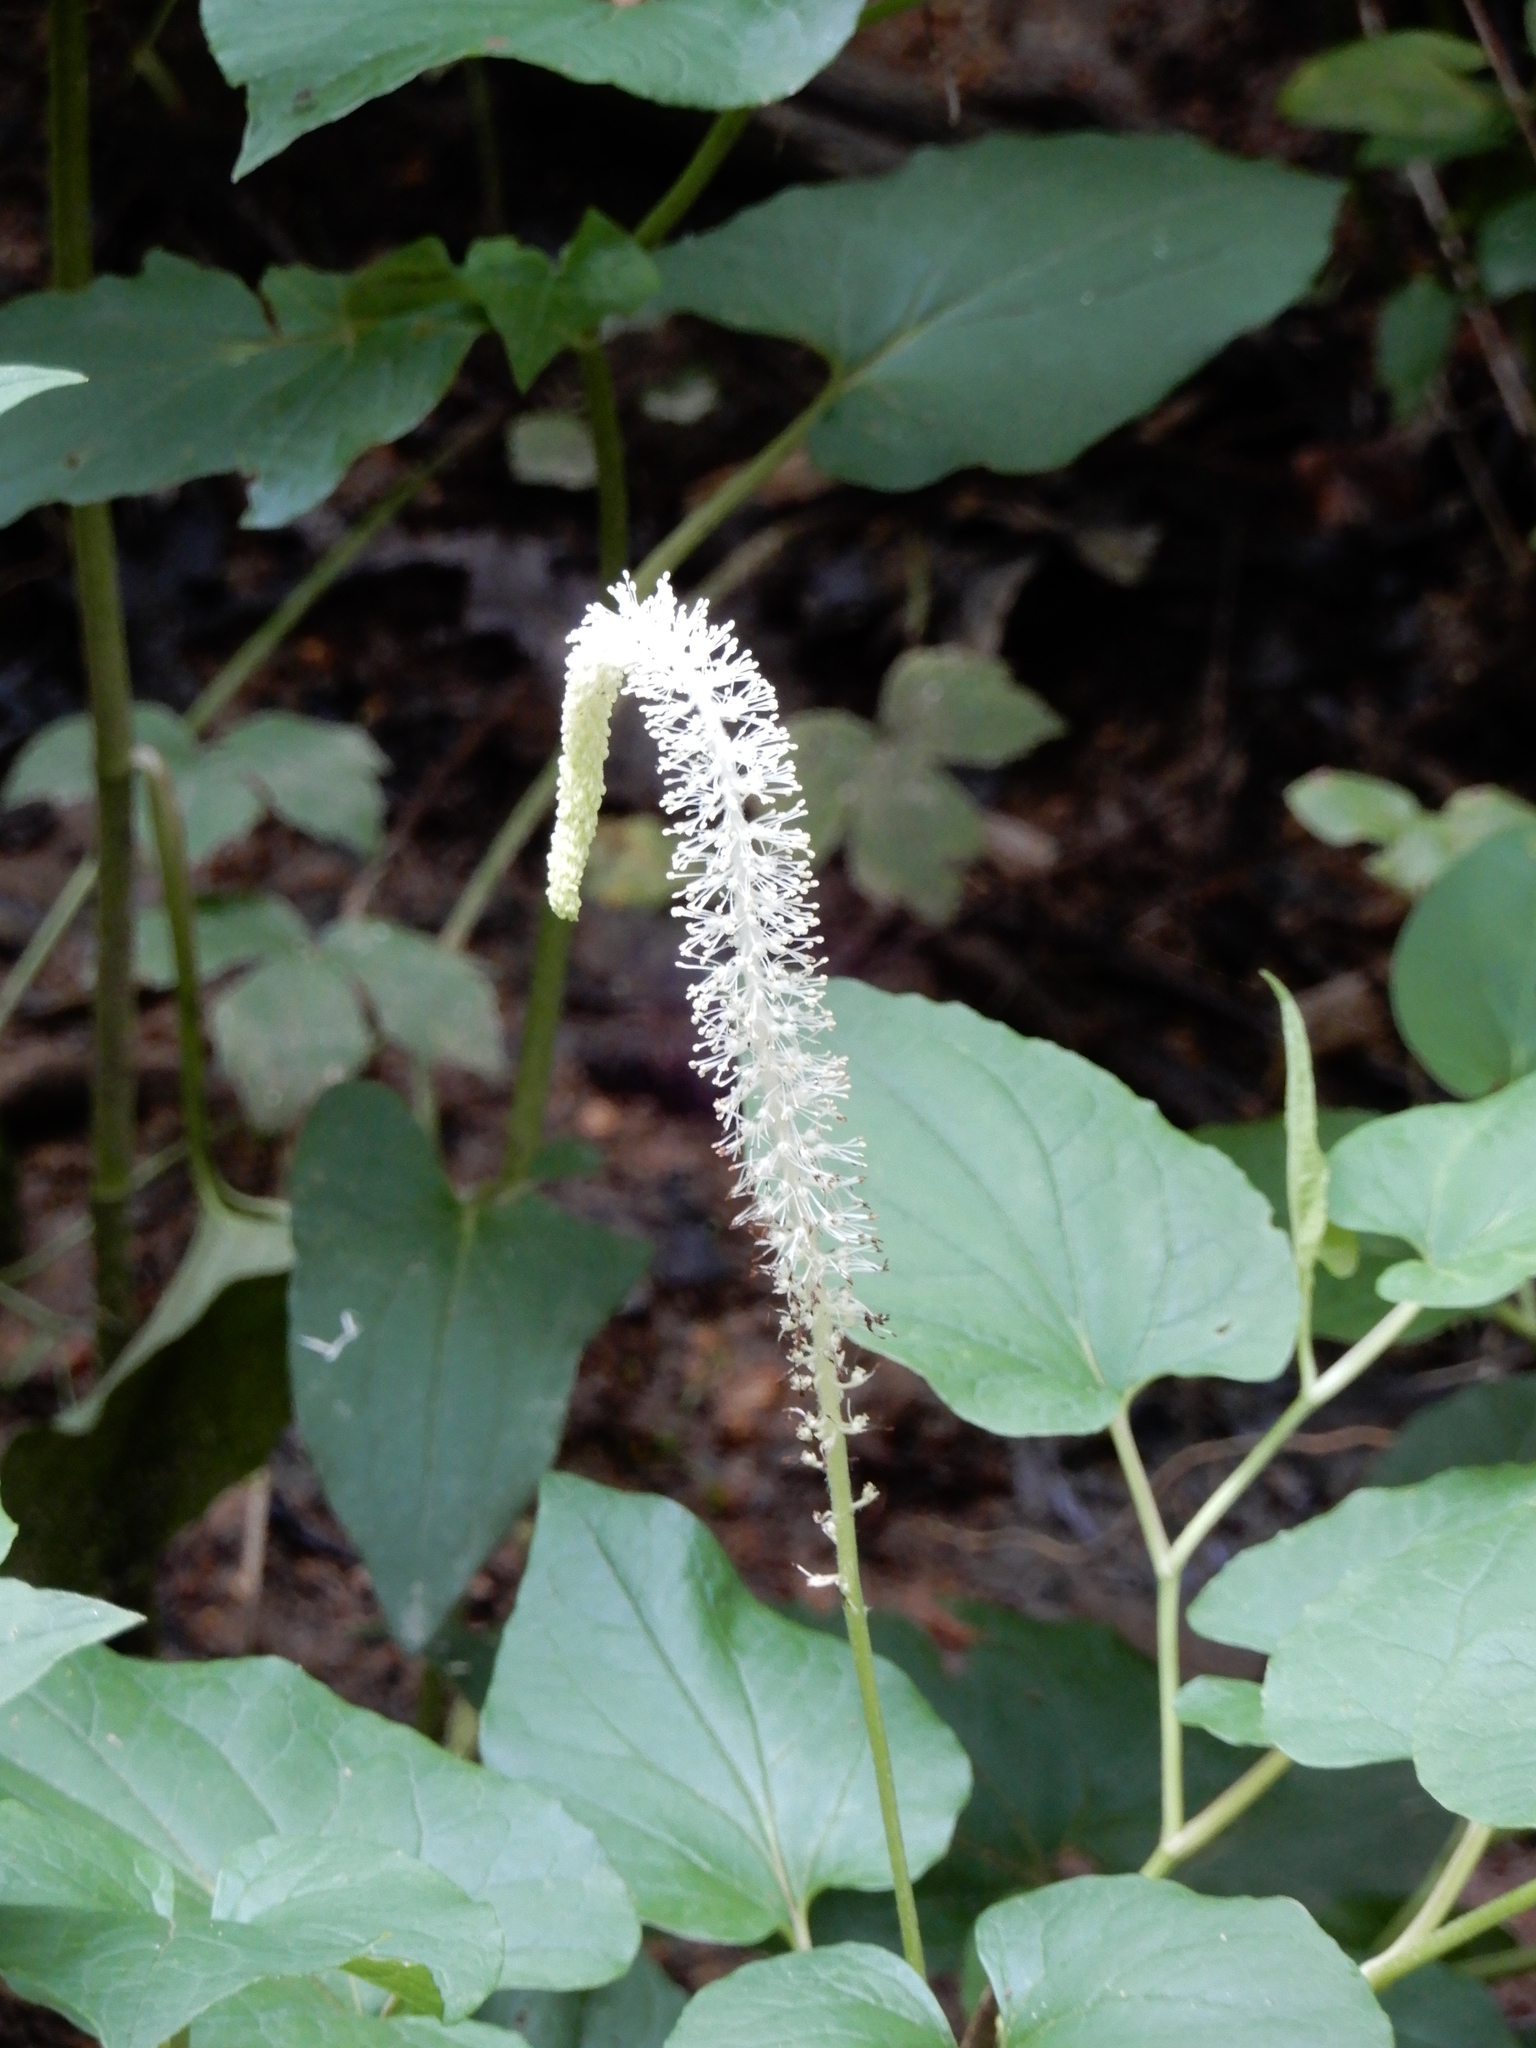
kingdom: Plantae
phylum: Tracheophyta
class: Magnoliopsida
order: Piperales
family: Saururaceae
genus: Saururus
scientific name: Saururus cernuus
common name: Lizard's-tail
